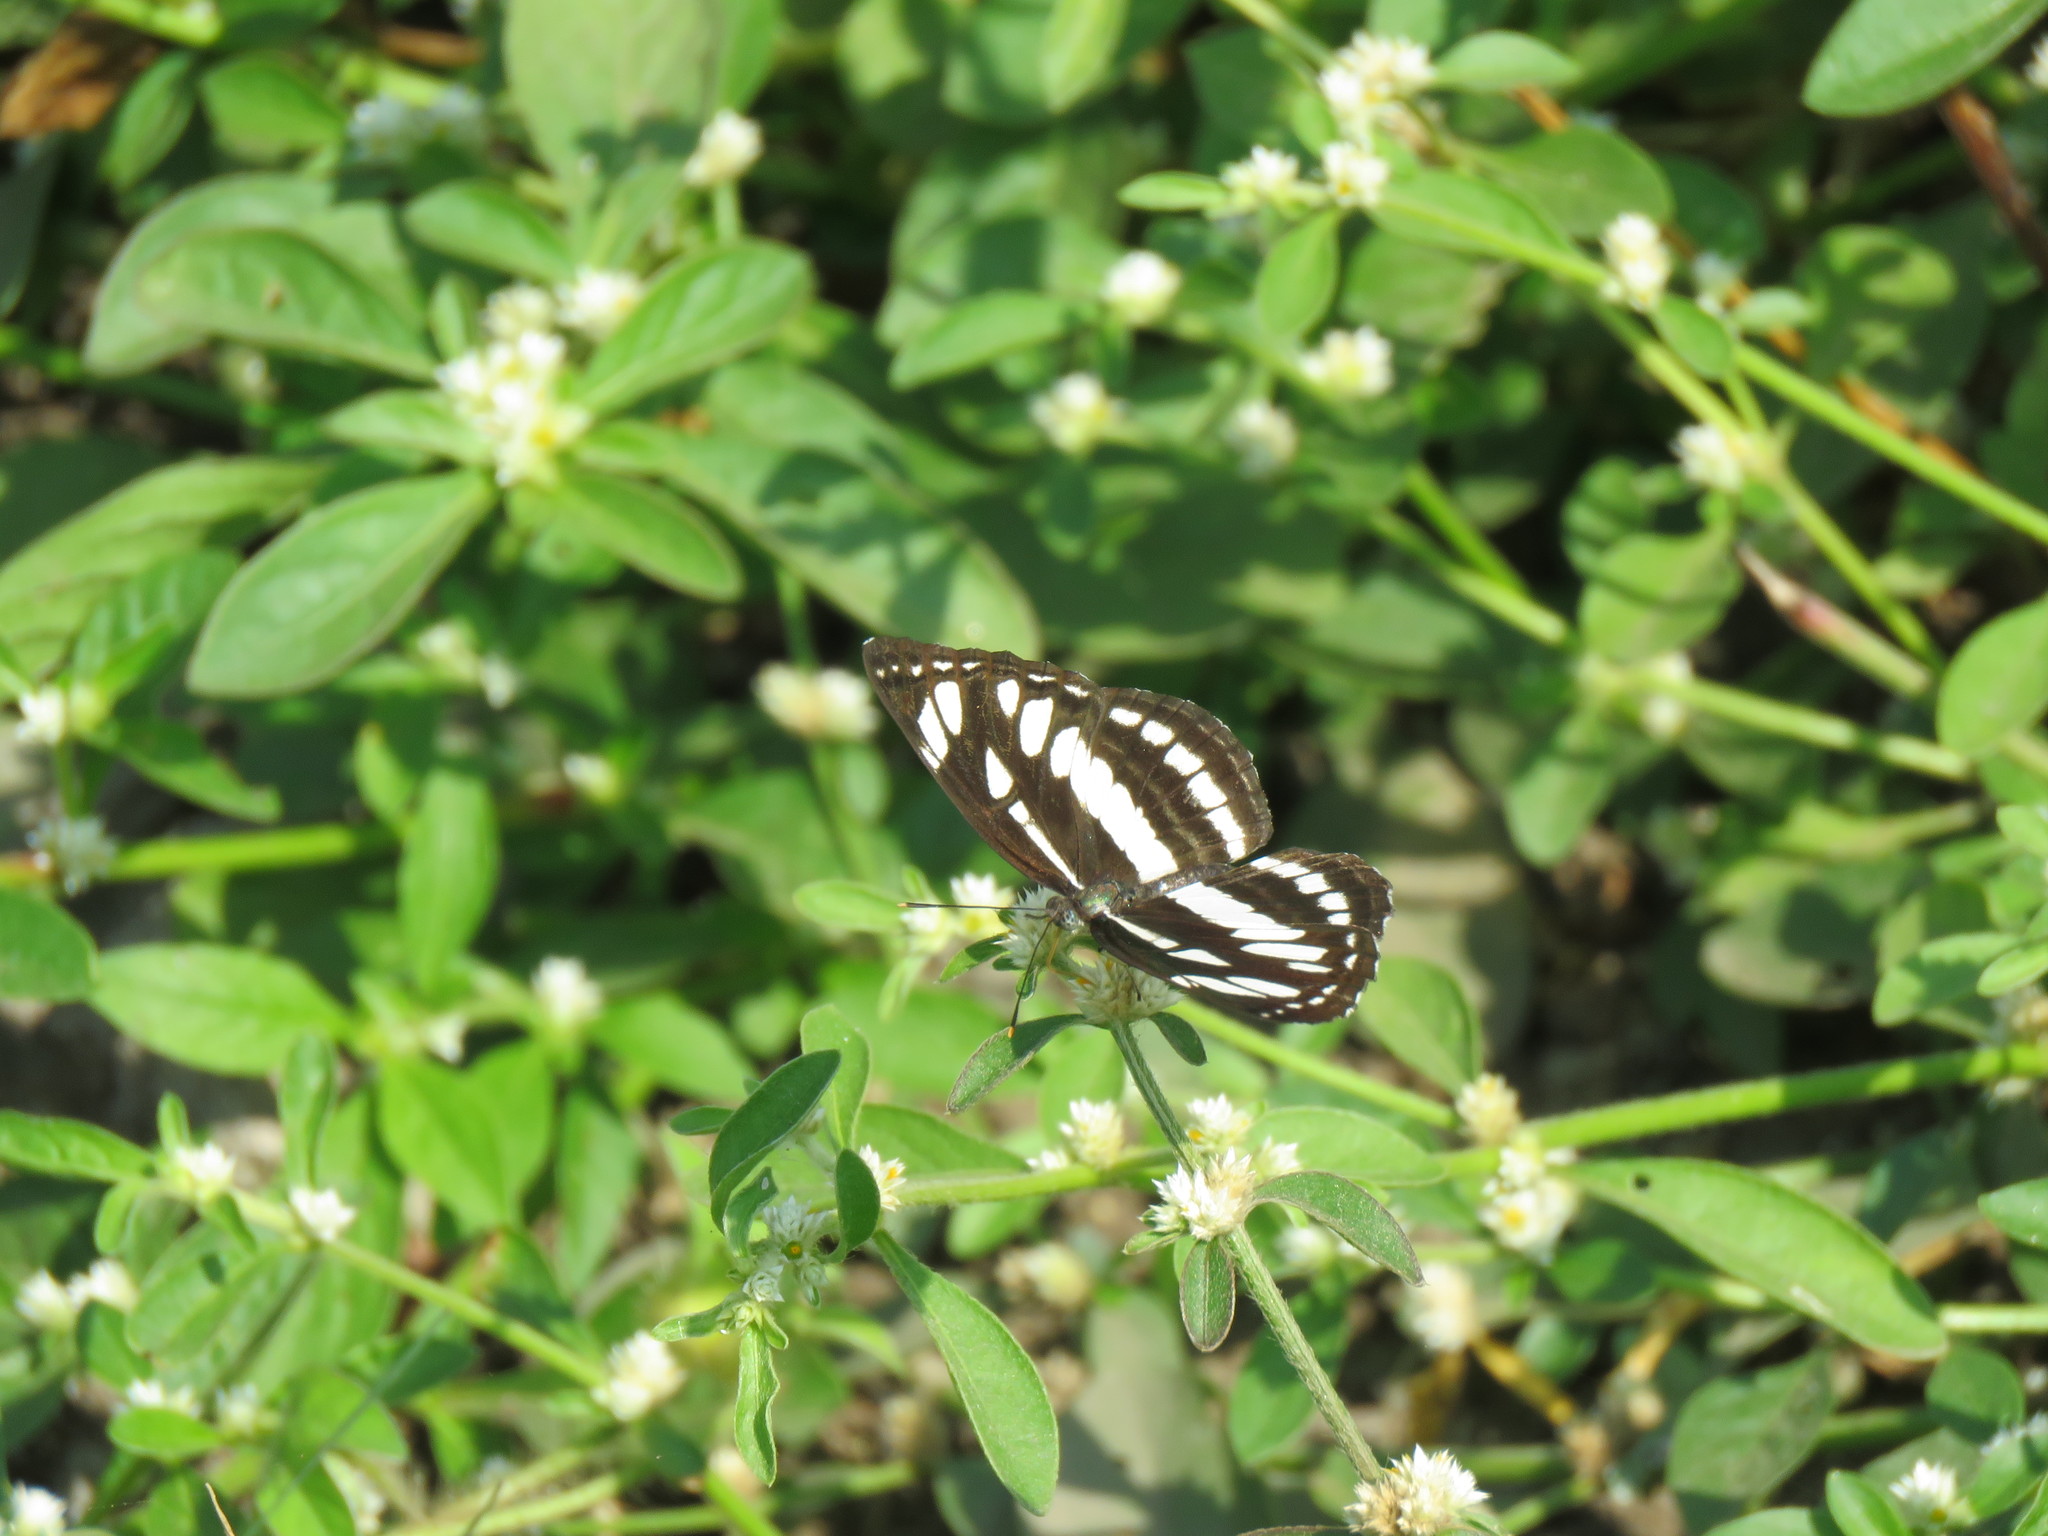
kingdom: Animalia
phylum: Arthropoda
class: Insecta
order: Lepidoptera
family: Nymphalidae
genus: Neptis
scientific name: Neptis hylas
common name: Common sailer
